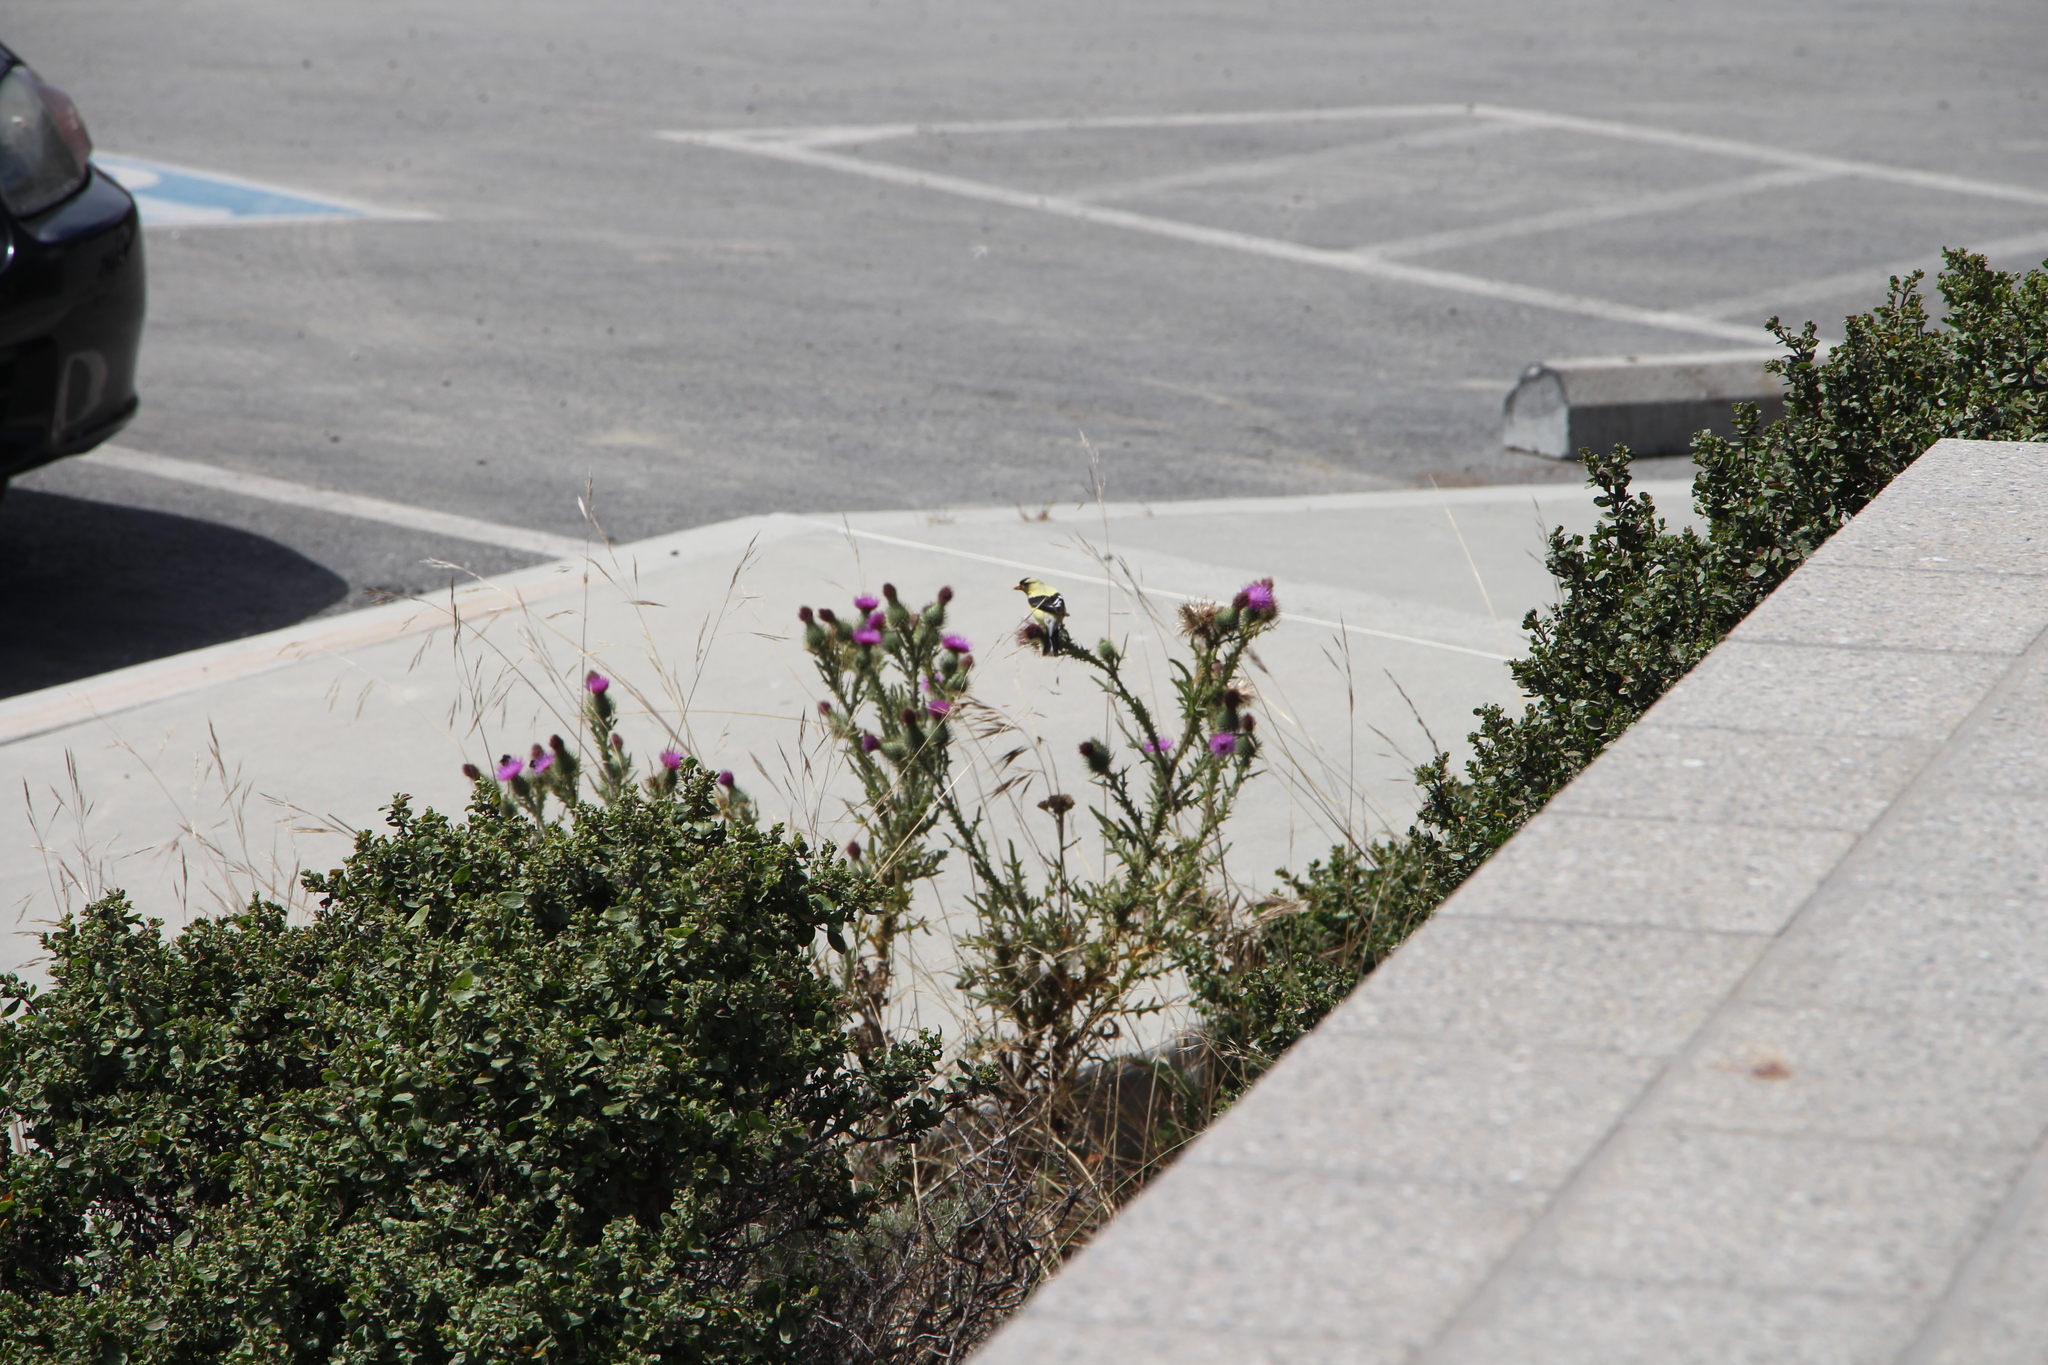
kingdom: Animalia
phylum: Chordata
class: Aves
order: Passeriformes
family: Fringillidae
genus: Spinus
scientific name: Spinus tristis
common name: American goldfinch
